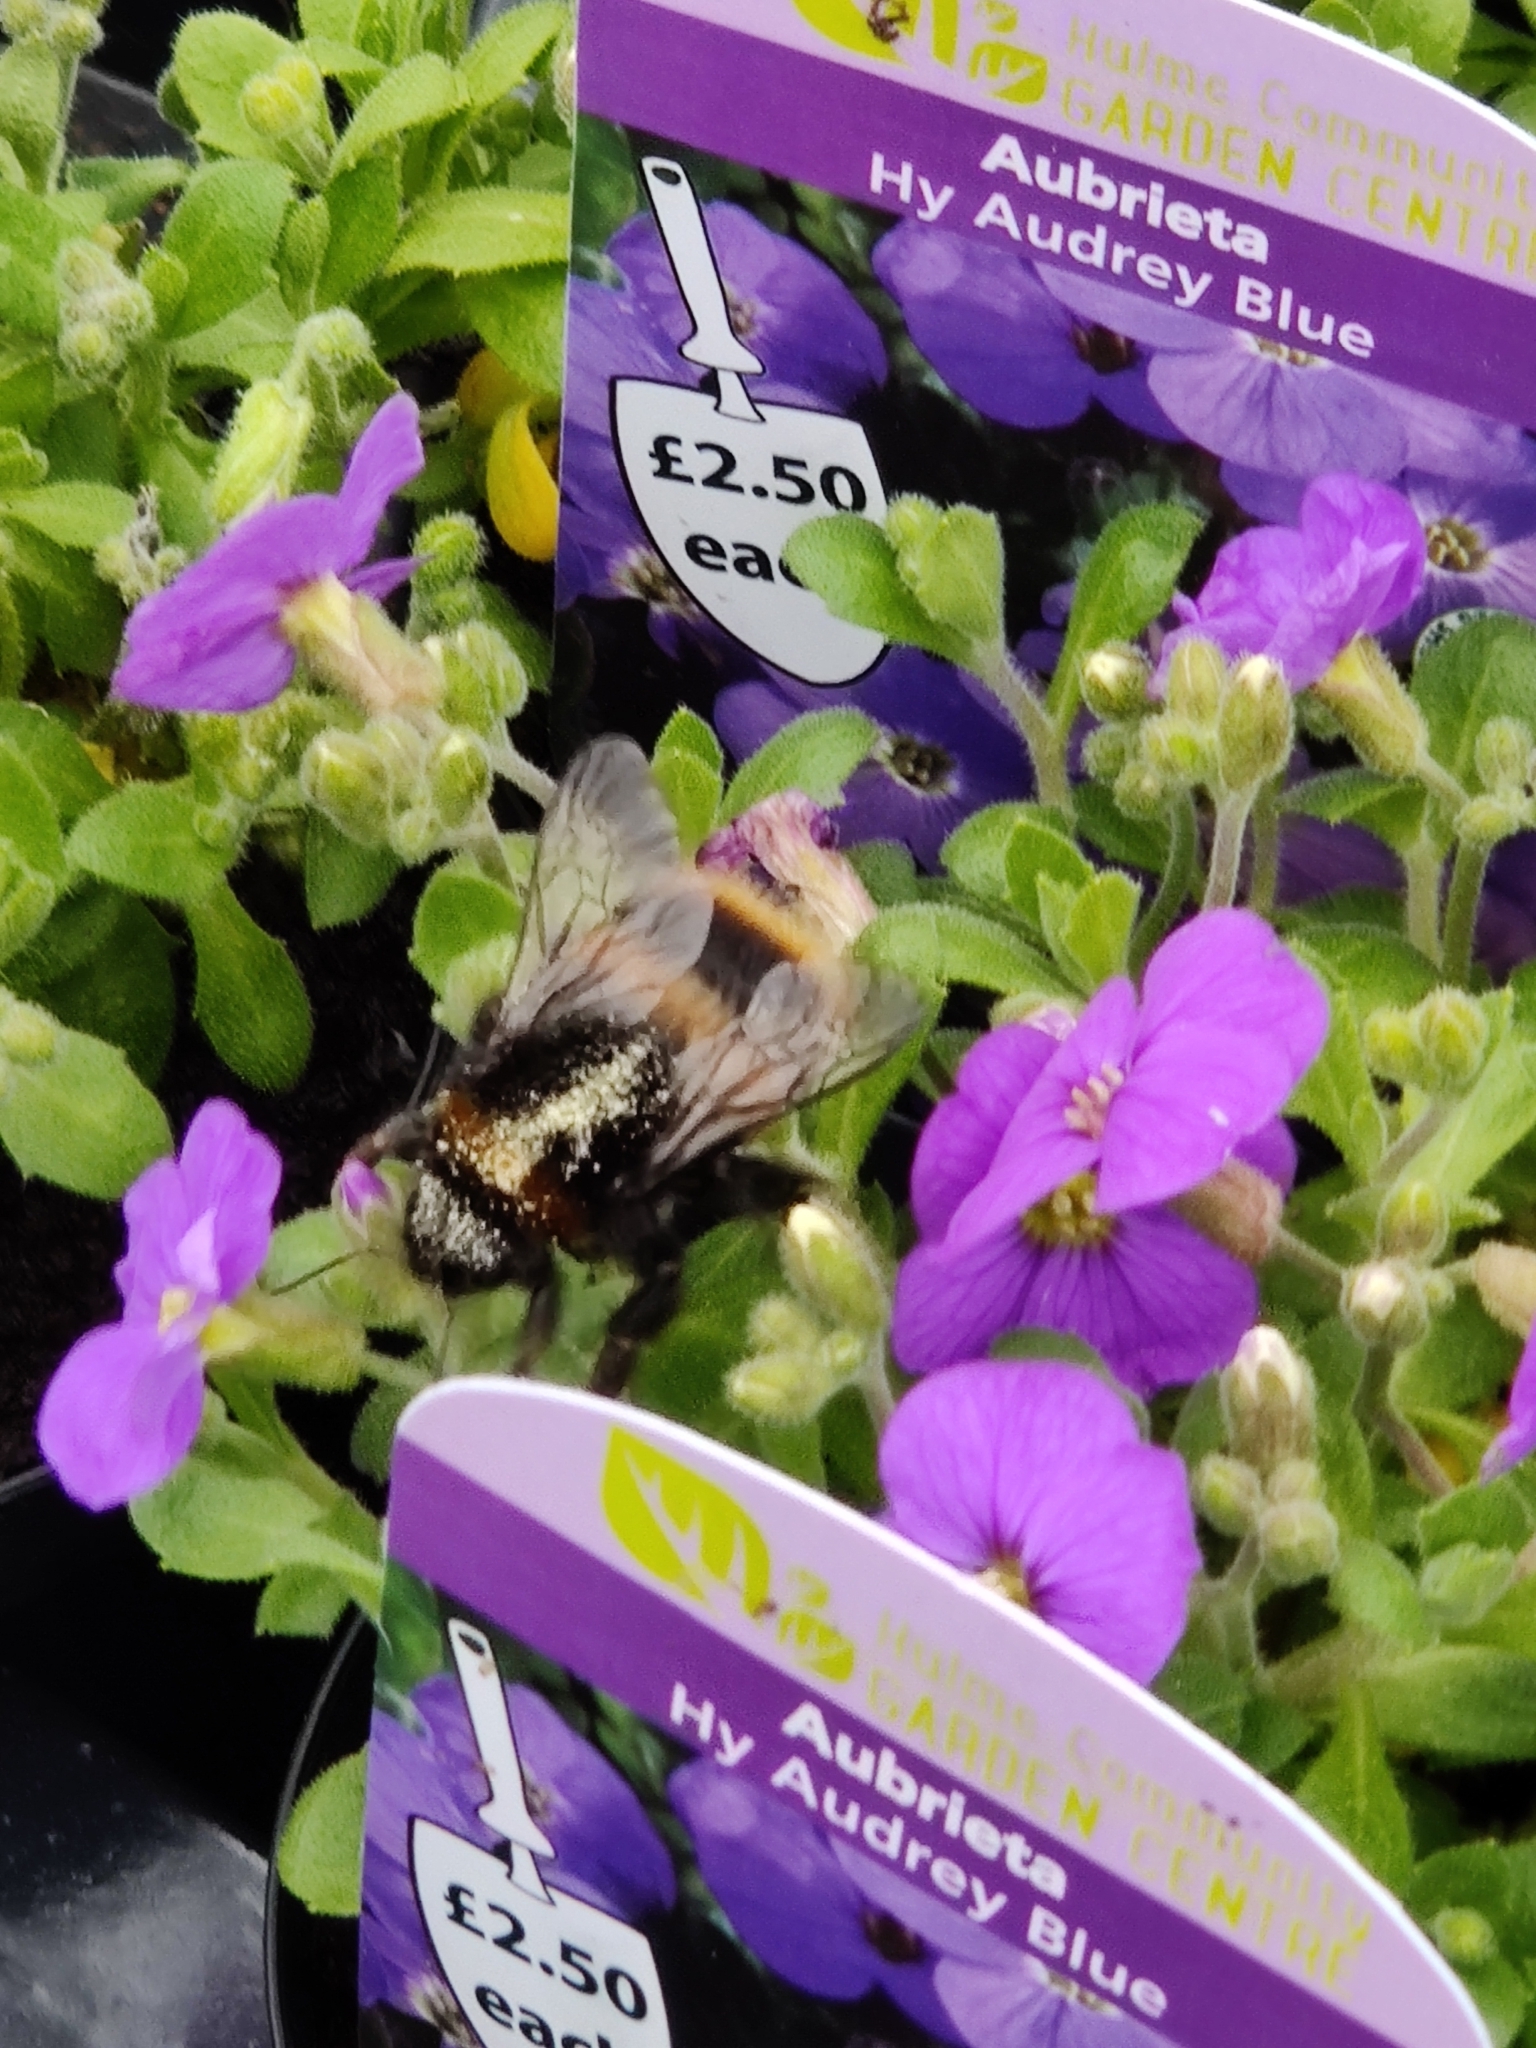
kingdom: Animalia
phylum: Arthropoda
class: Insecta
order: Hymenoptera
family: Apidae
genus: Bombus
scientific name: Bombus terrestris
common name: Buff-tailed bumblebee
